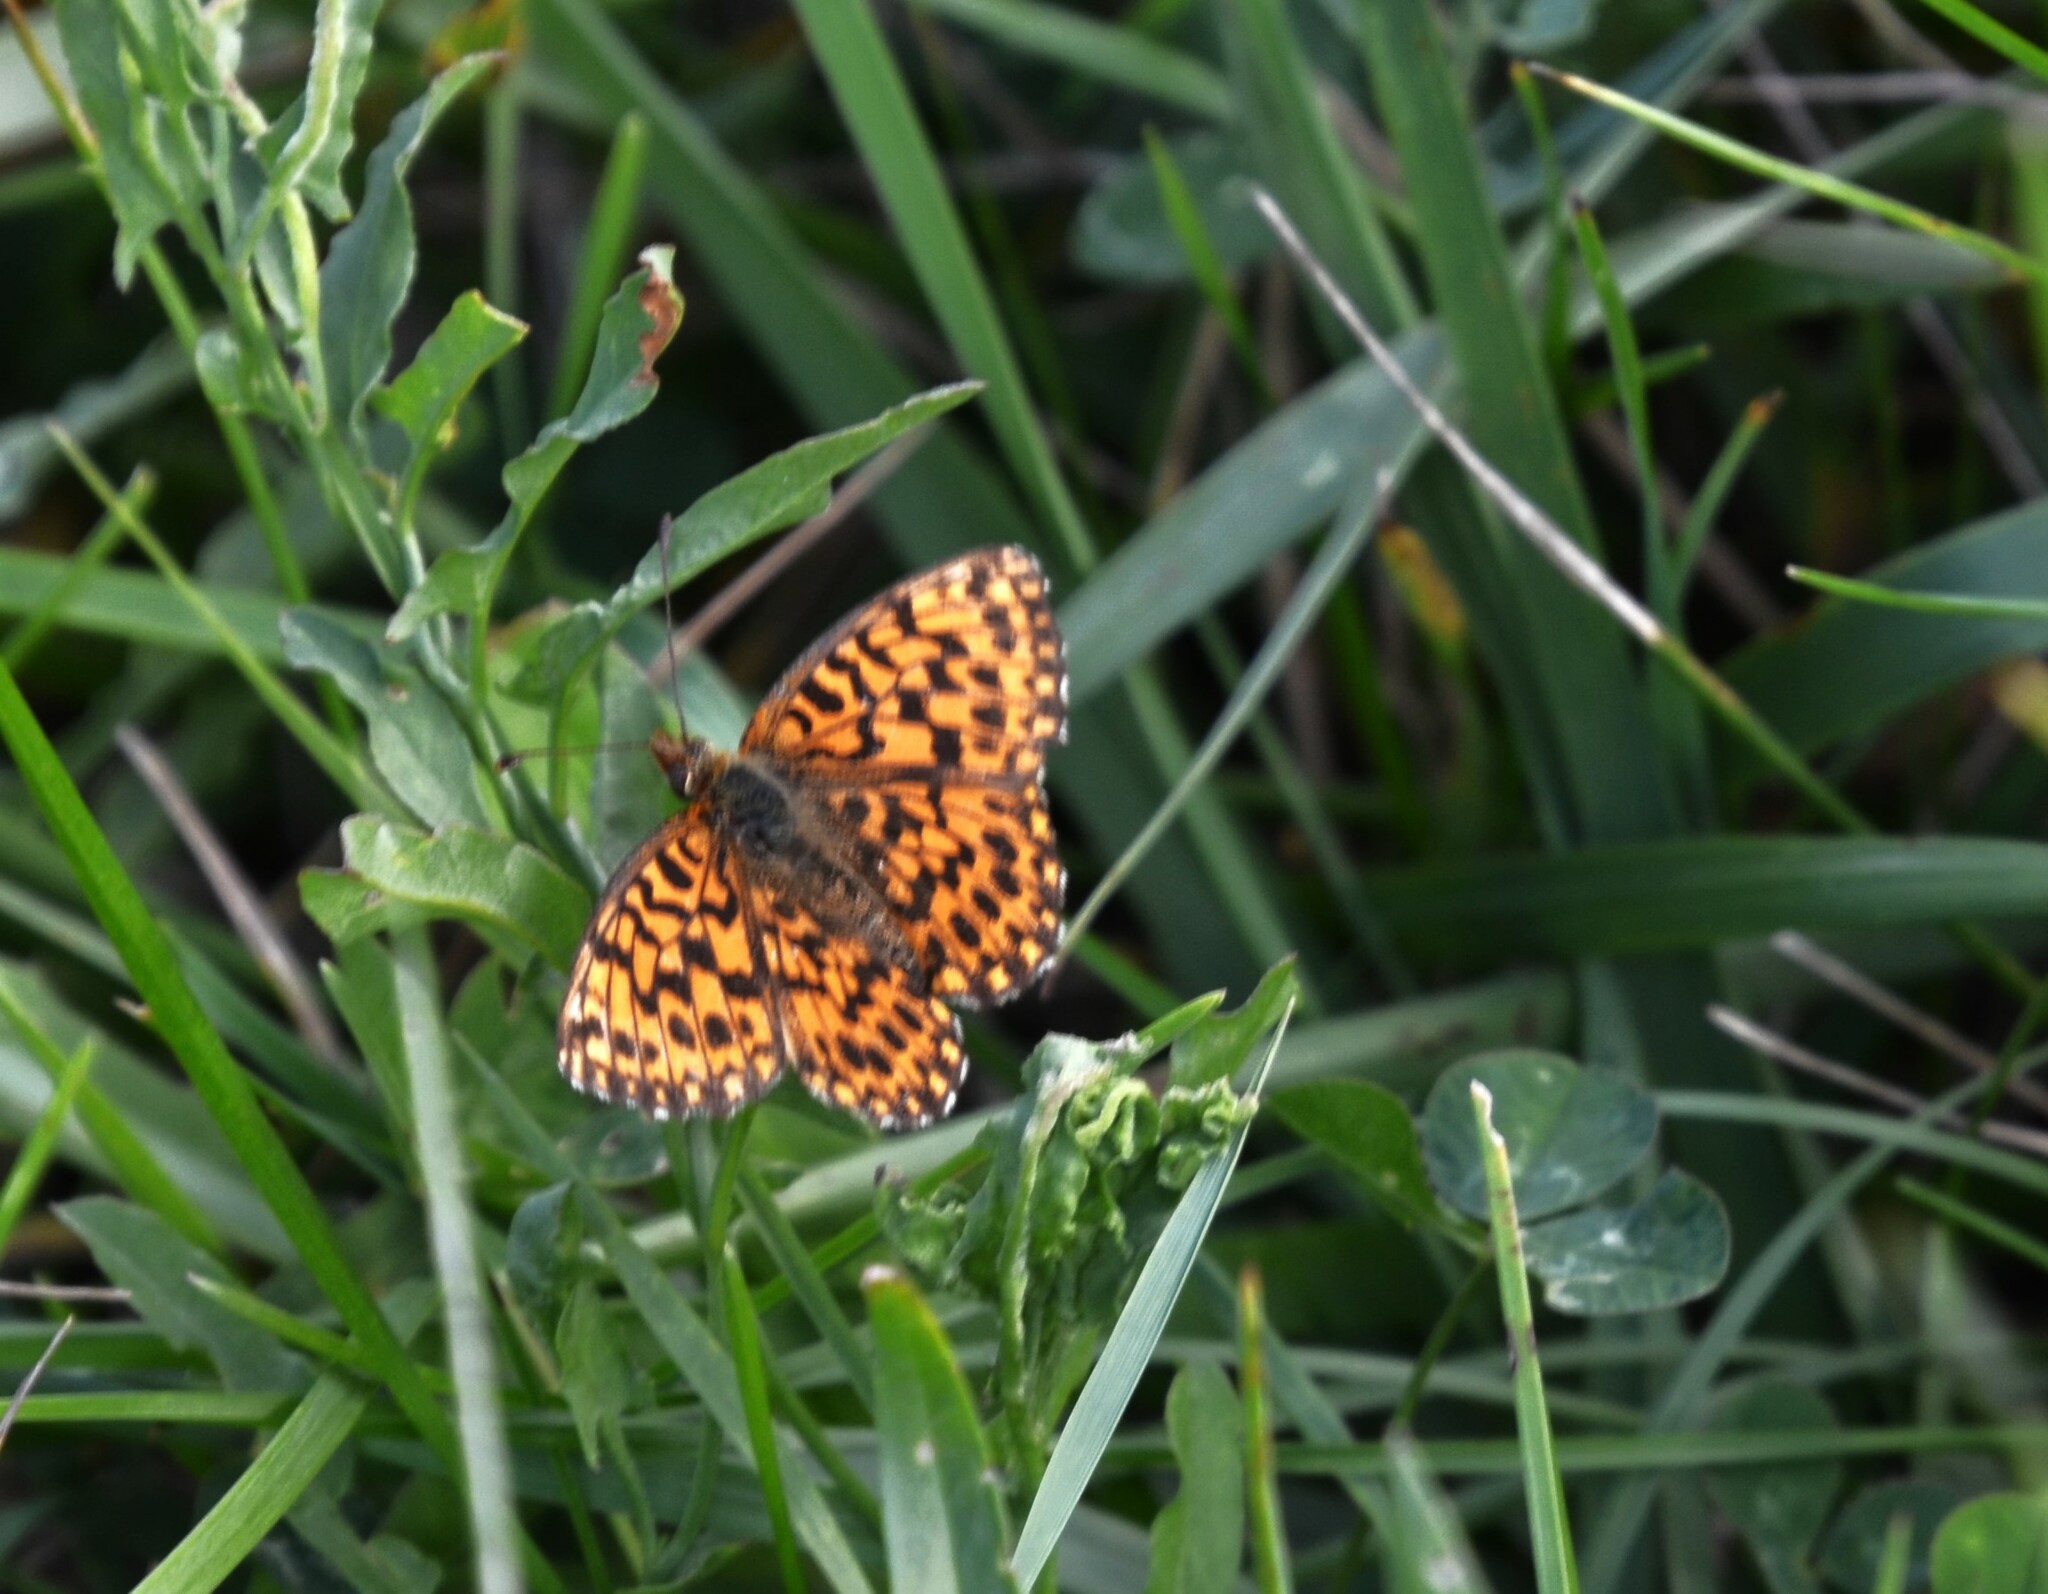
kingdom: Animalia
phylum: Arthropoda
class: Insecta
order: Lepidoptera
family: Nymphalidae
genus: Boloria
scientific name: Boloria dia
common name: Weaver's fritillary
